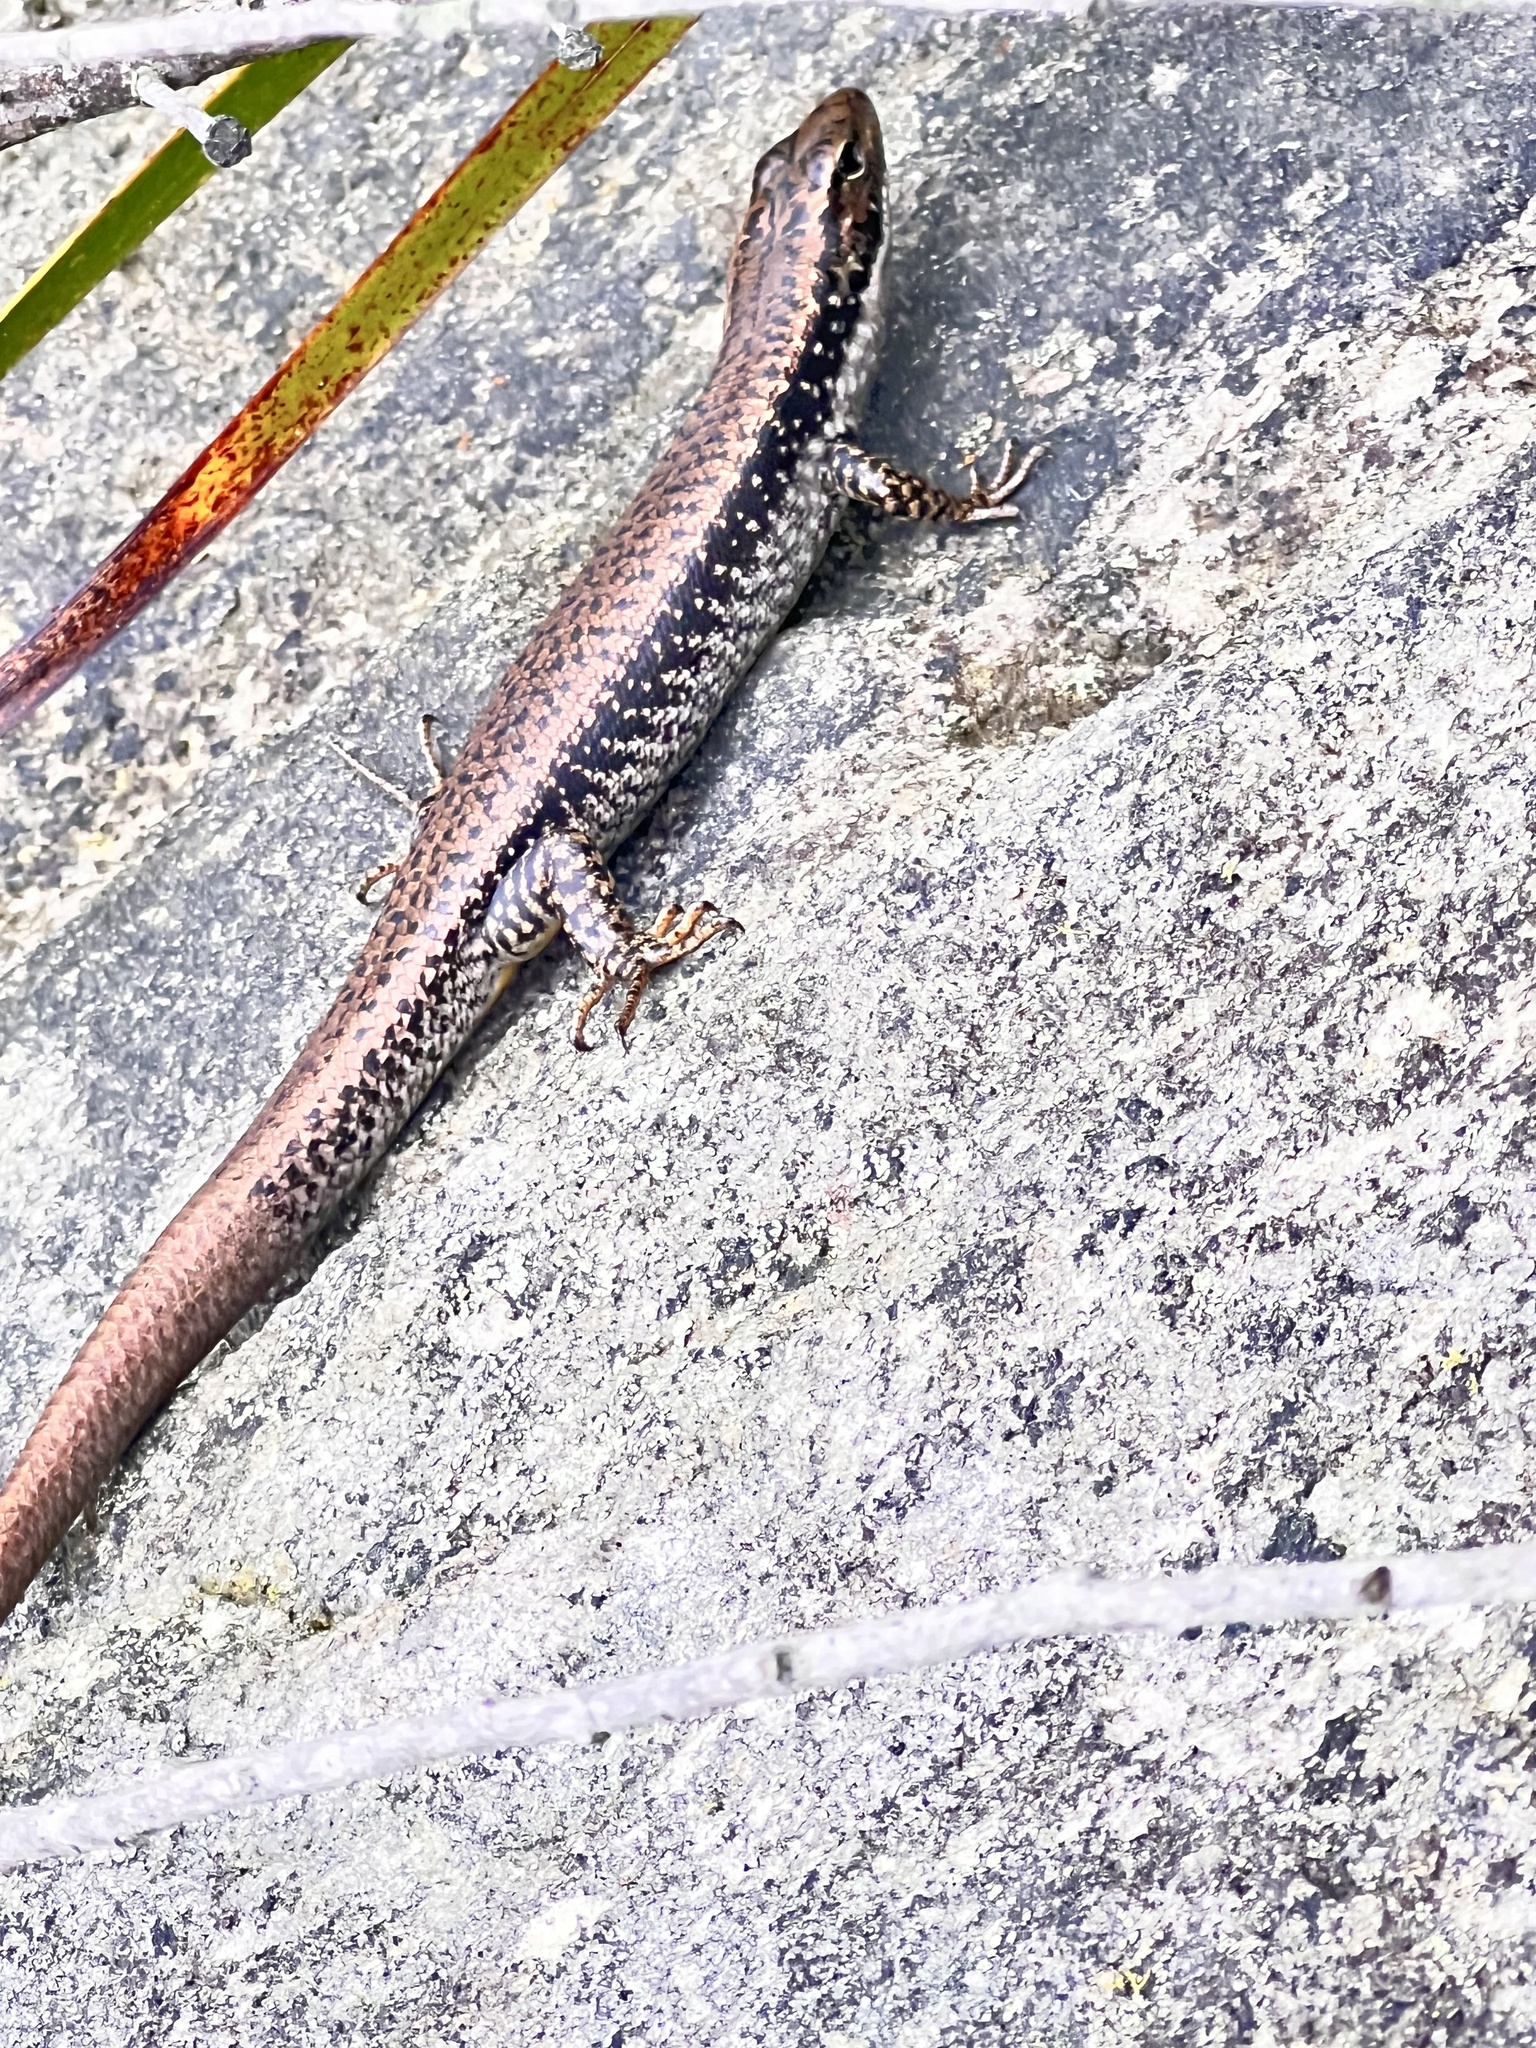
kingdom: Animalia
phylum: Chordata
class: Squamata
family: Scincidae
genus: Eulamprus
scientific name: Eulamprus heatwolei
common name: Warm-temperate water-skink
